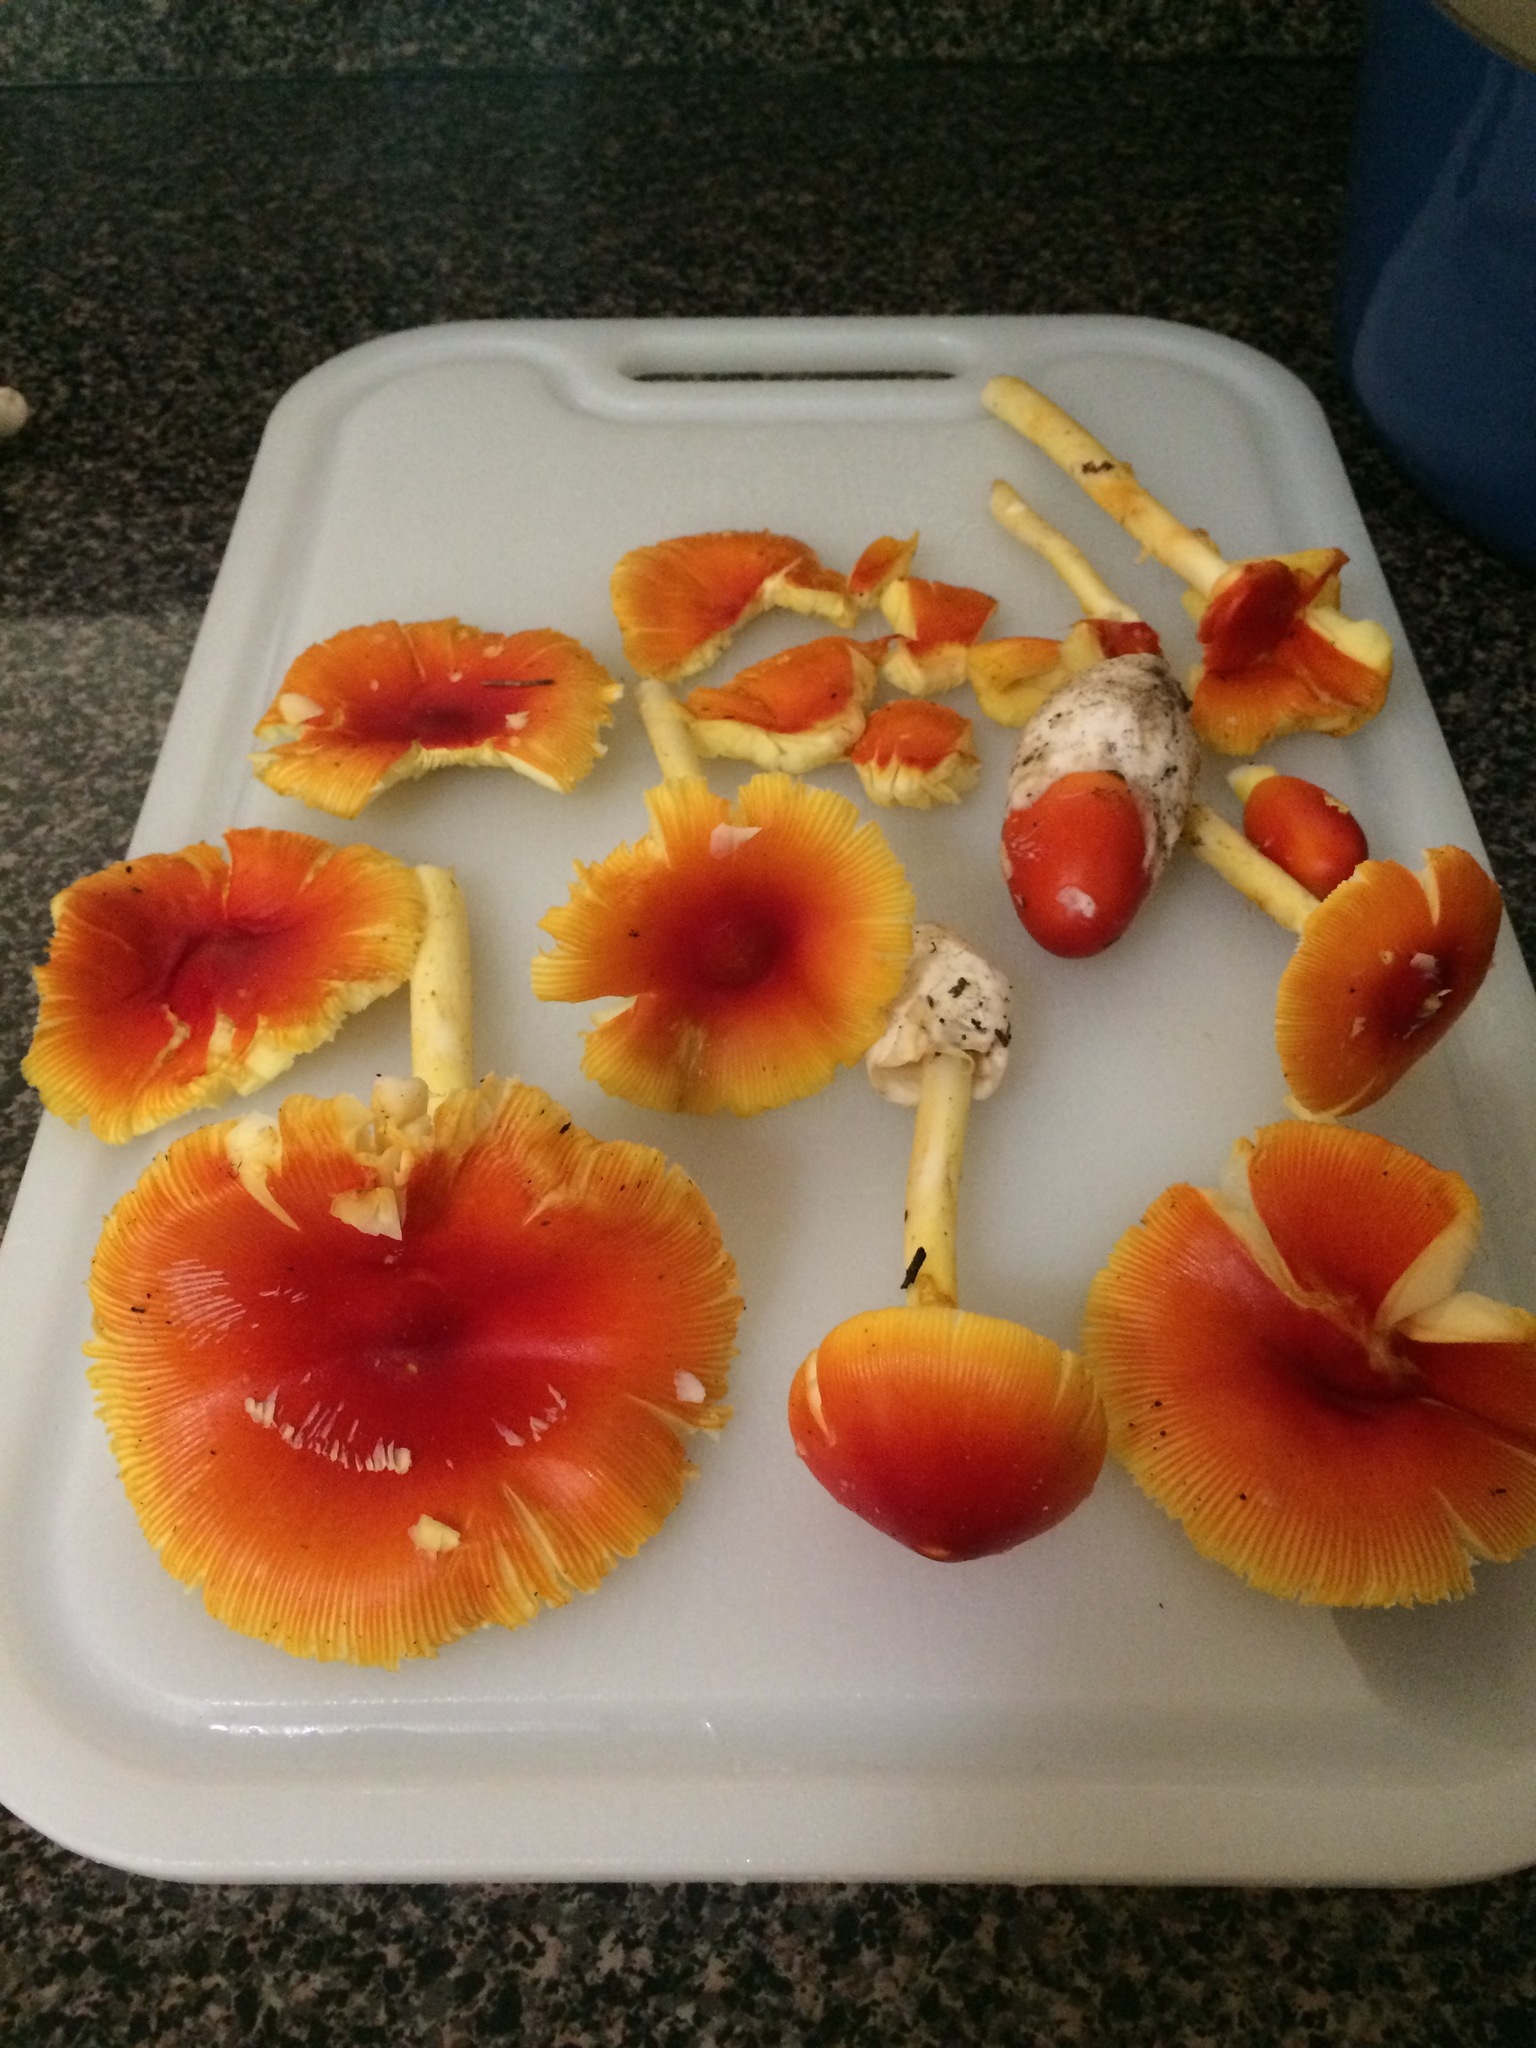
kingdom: Fungi
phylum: Basidiomycota
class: Agaricomycetes
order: Agaricales
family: Amanitaceae
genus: Amanita
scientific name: Amanita jacksonii
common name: Jackson's slender caesar
